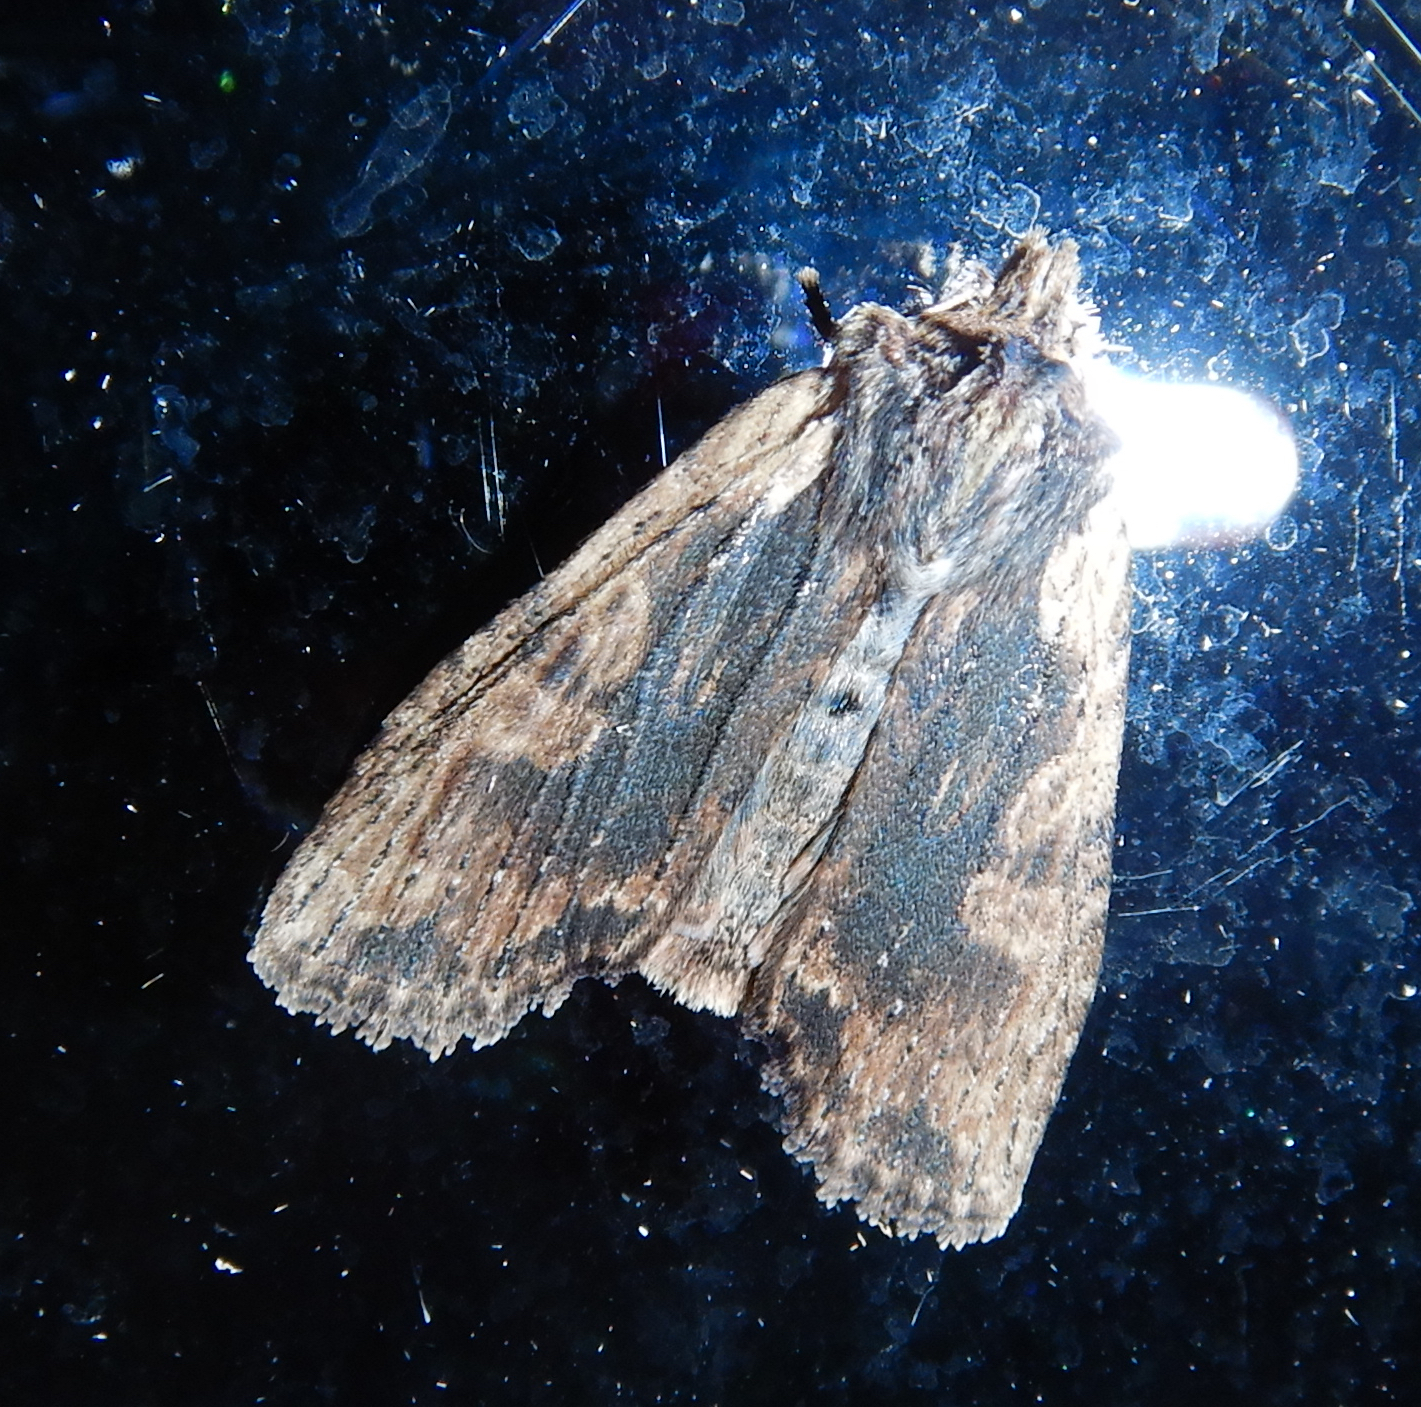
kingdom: Animalia
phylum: Arthropoda
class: Insecta
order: Lepidoptera
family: Noctuidae
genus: Lithophane
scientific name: Lithophane hemina
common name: Hemina pinion moth
